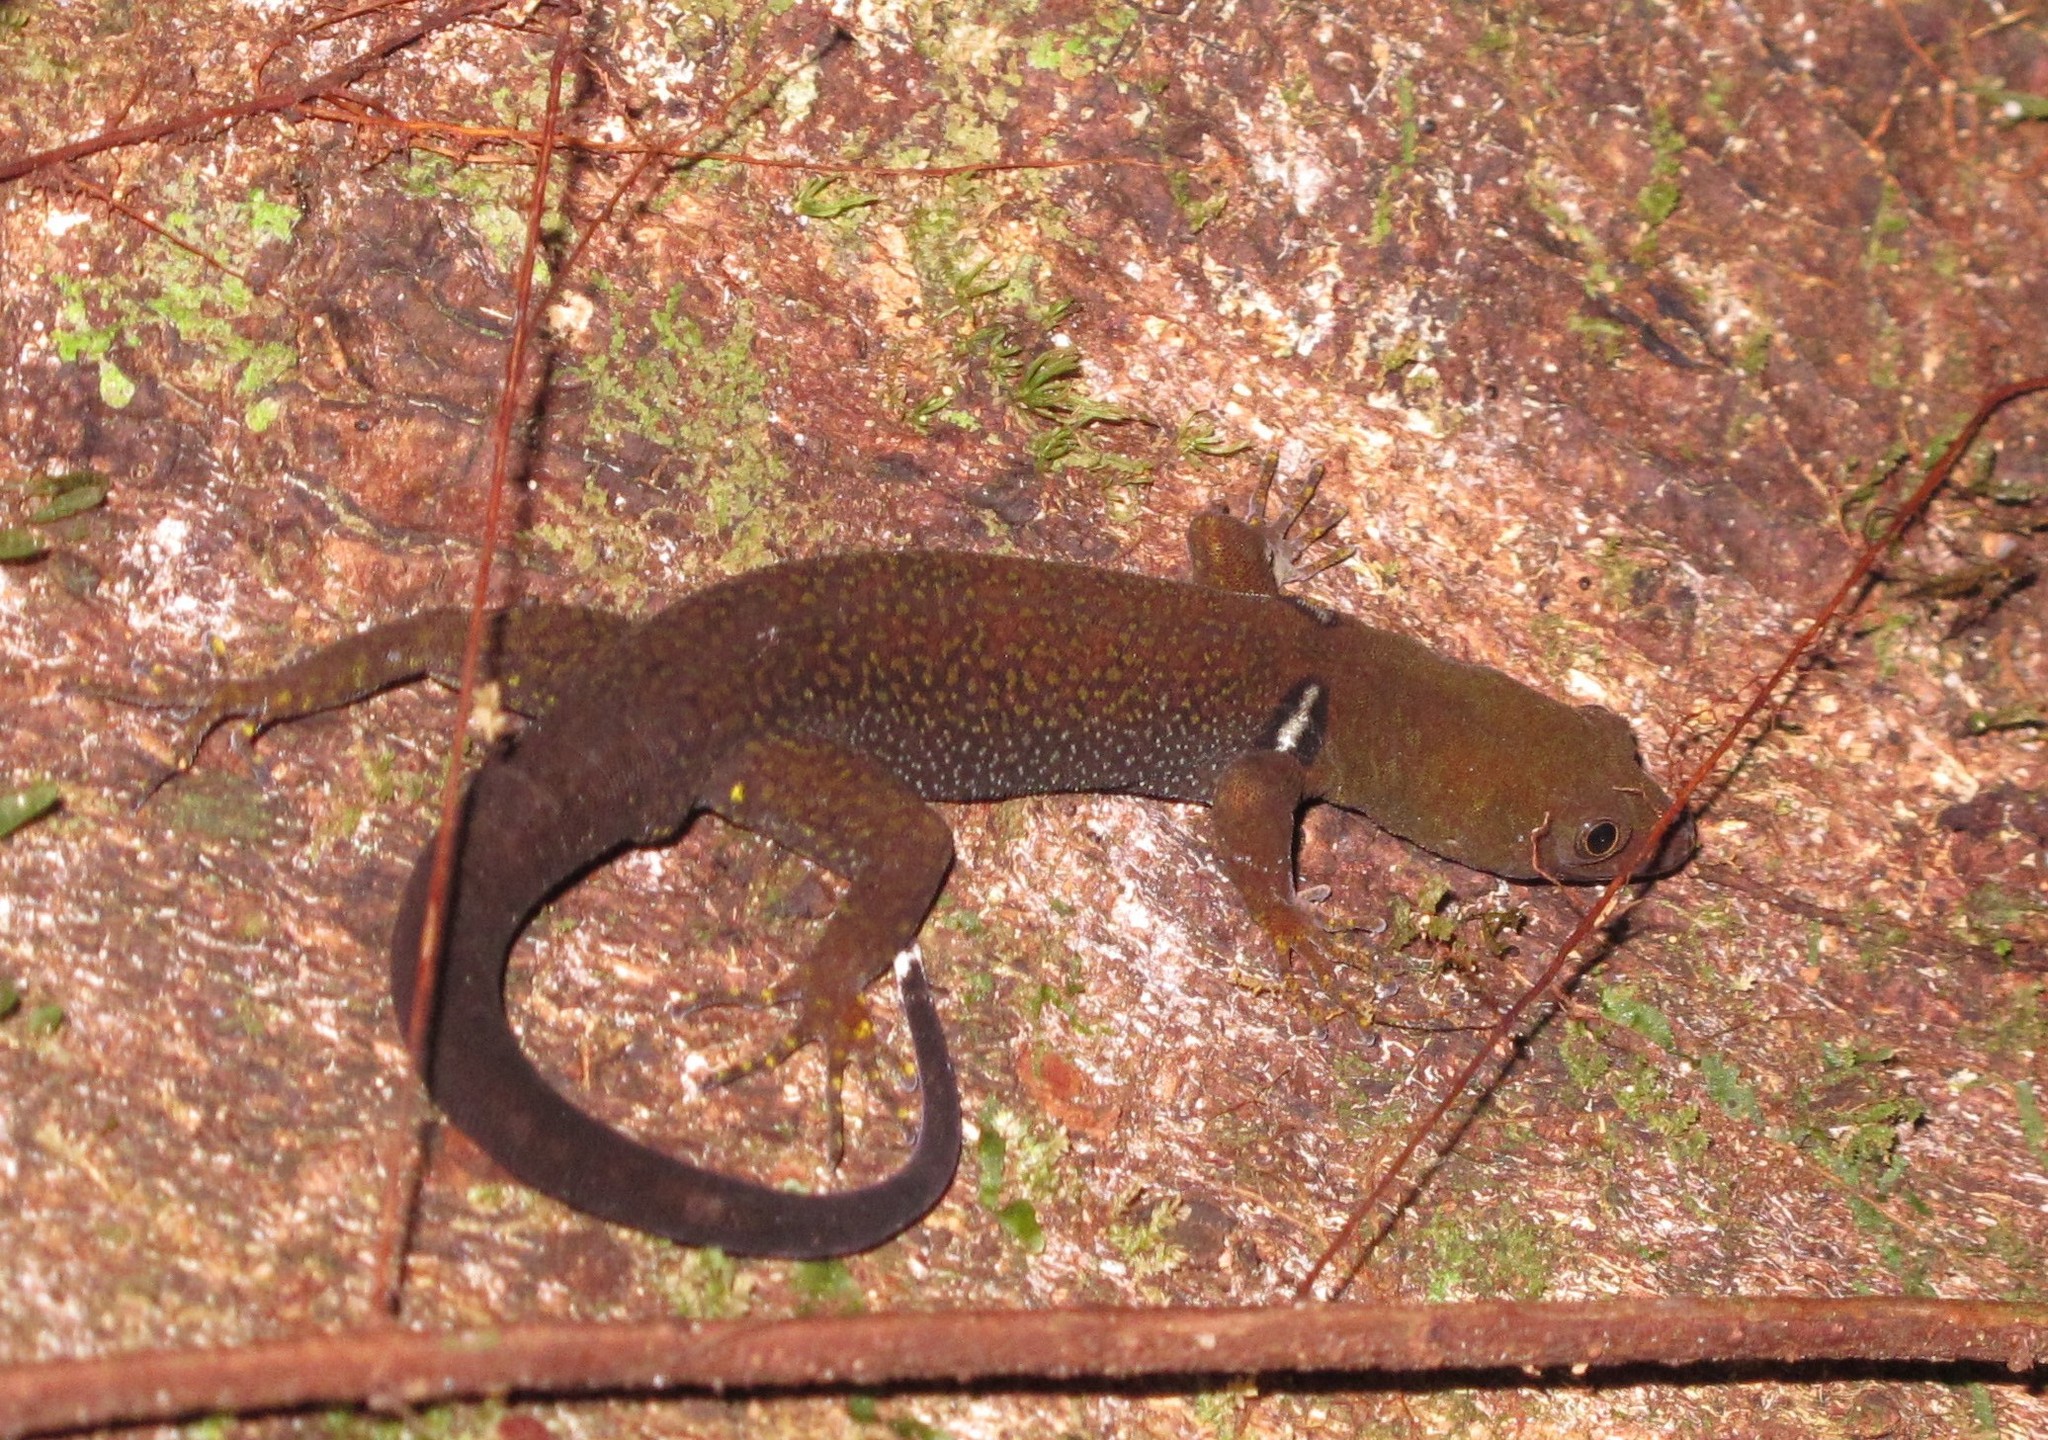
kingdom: Animalia
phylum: Chordata
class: Squamata
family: Sphaerodactylidae
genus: Gonatodes
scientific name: Gonatodes concinnatus
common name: O'shaughnessy's gecko
